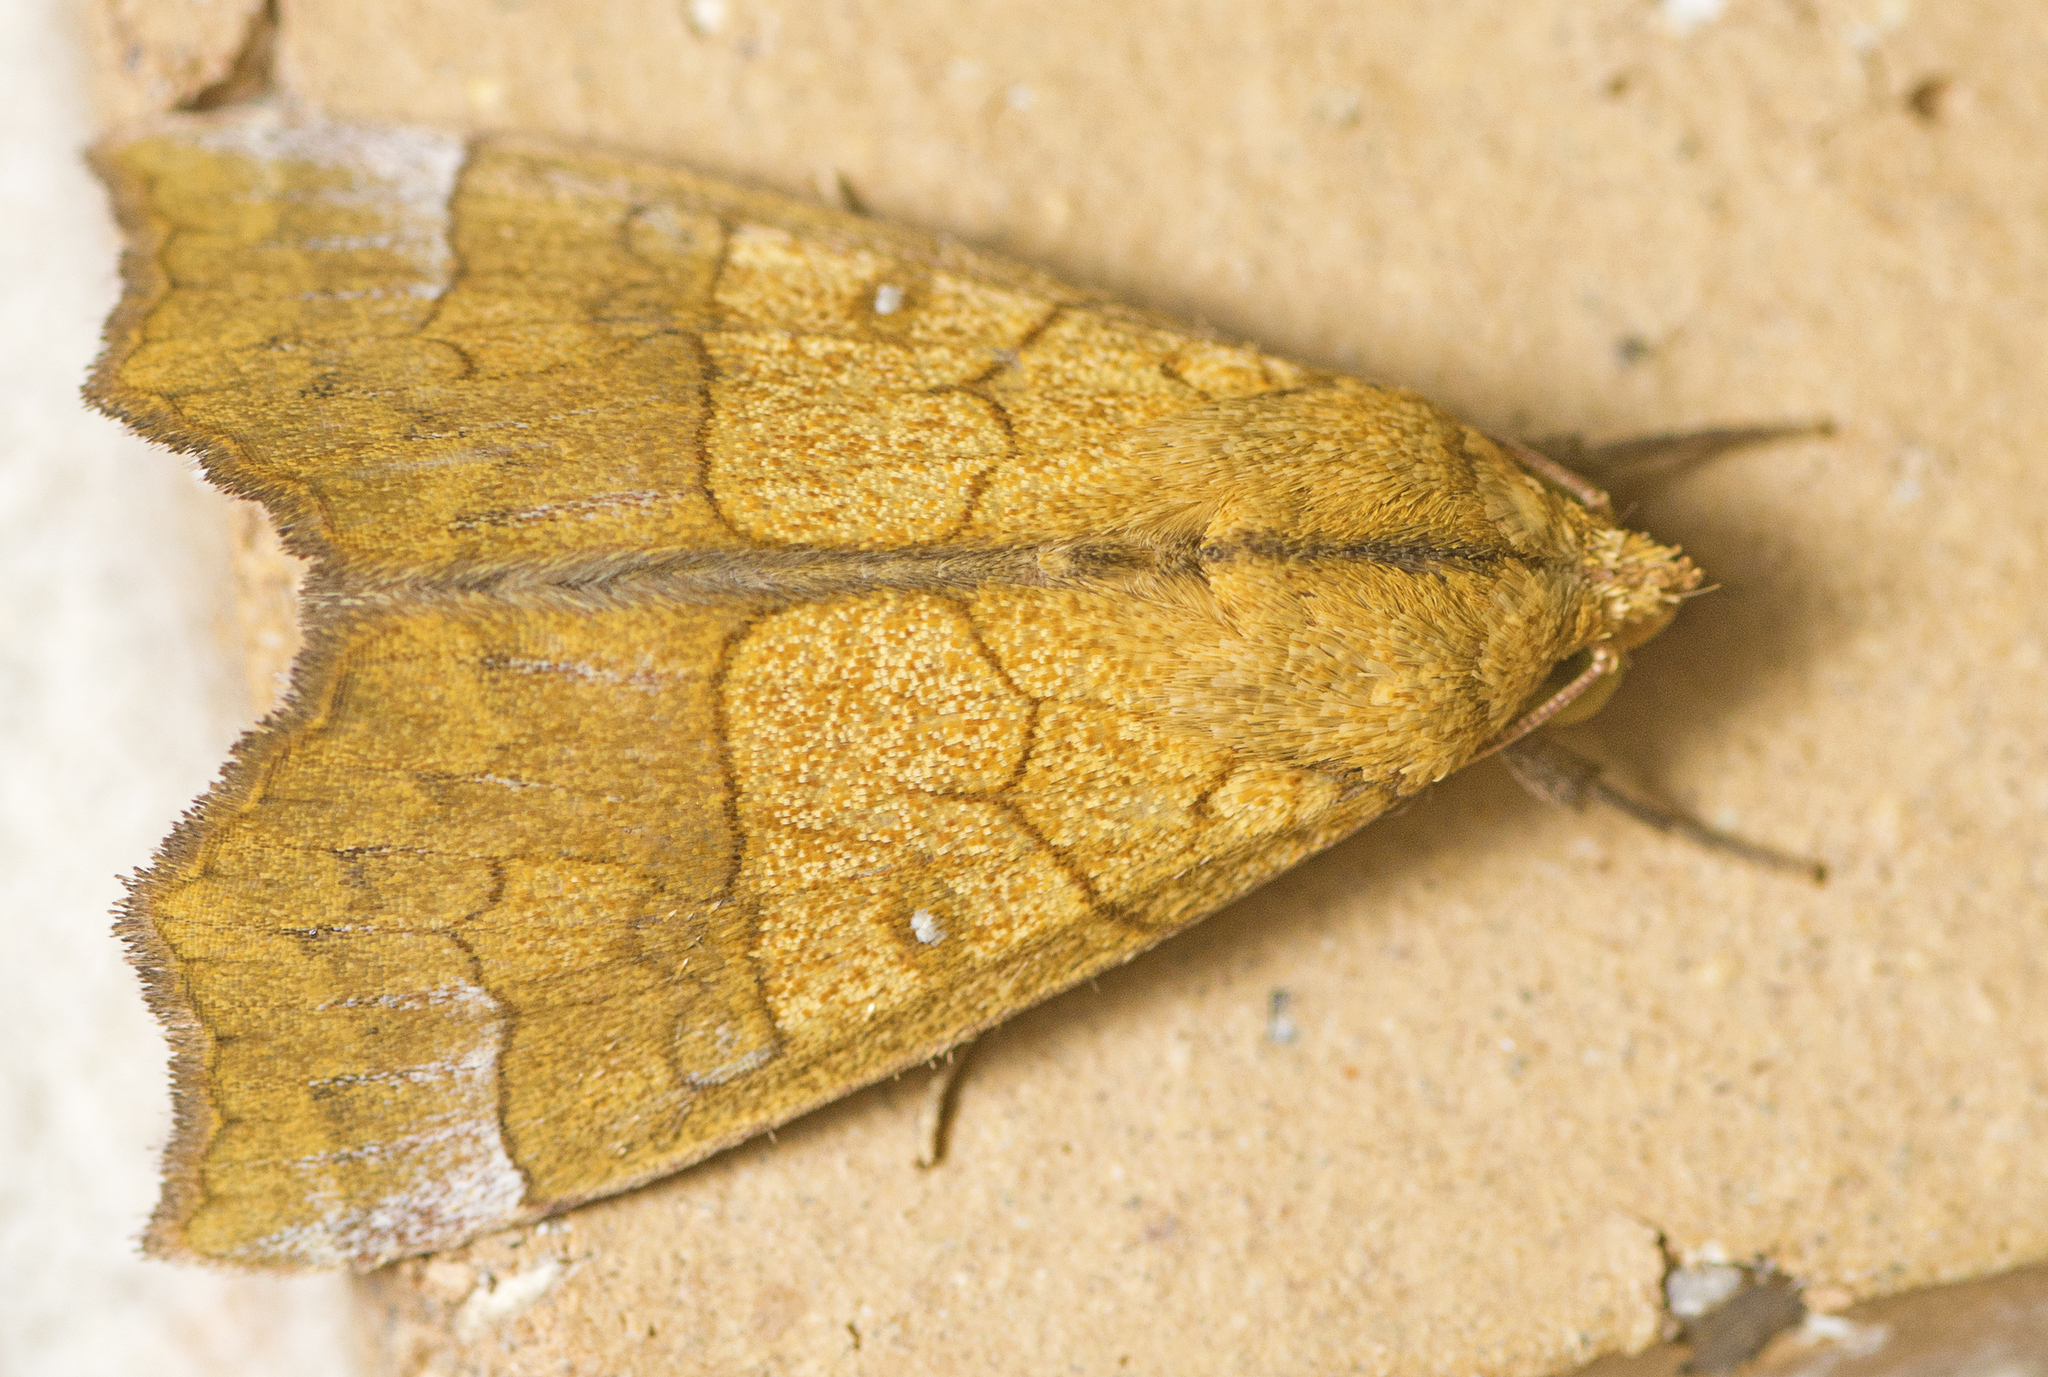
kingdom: Animalia
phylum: Arthropoda
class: Insecta
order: Lepidoptera
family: Erebidae
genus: Anomis
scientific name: Anomis flava
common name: Moth
